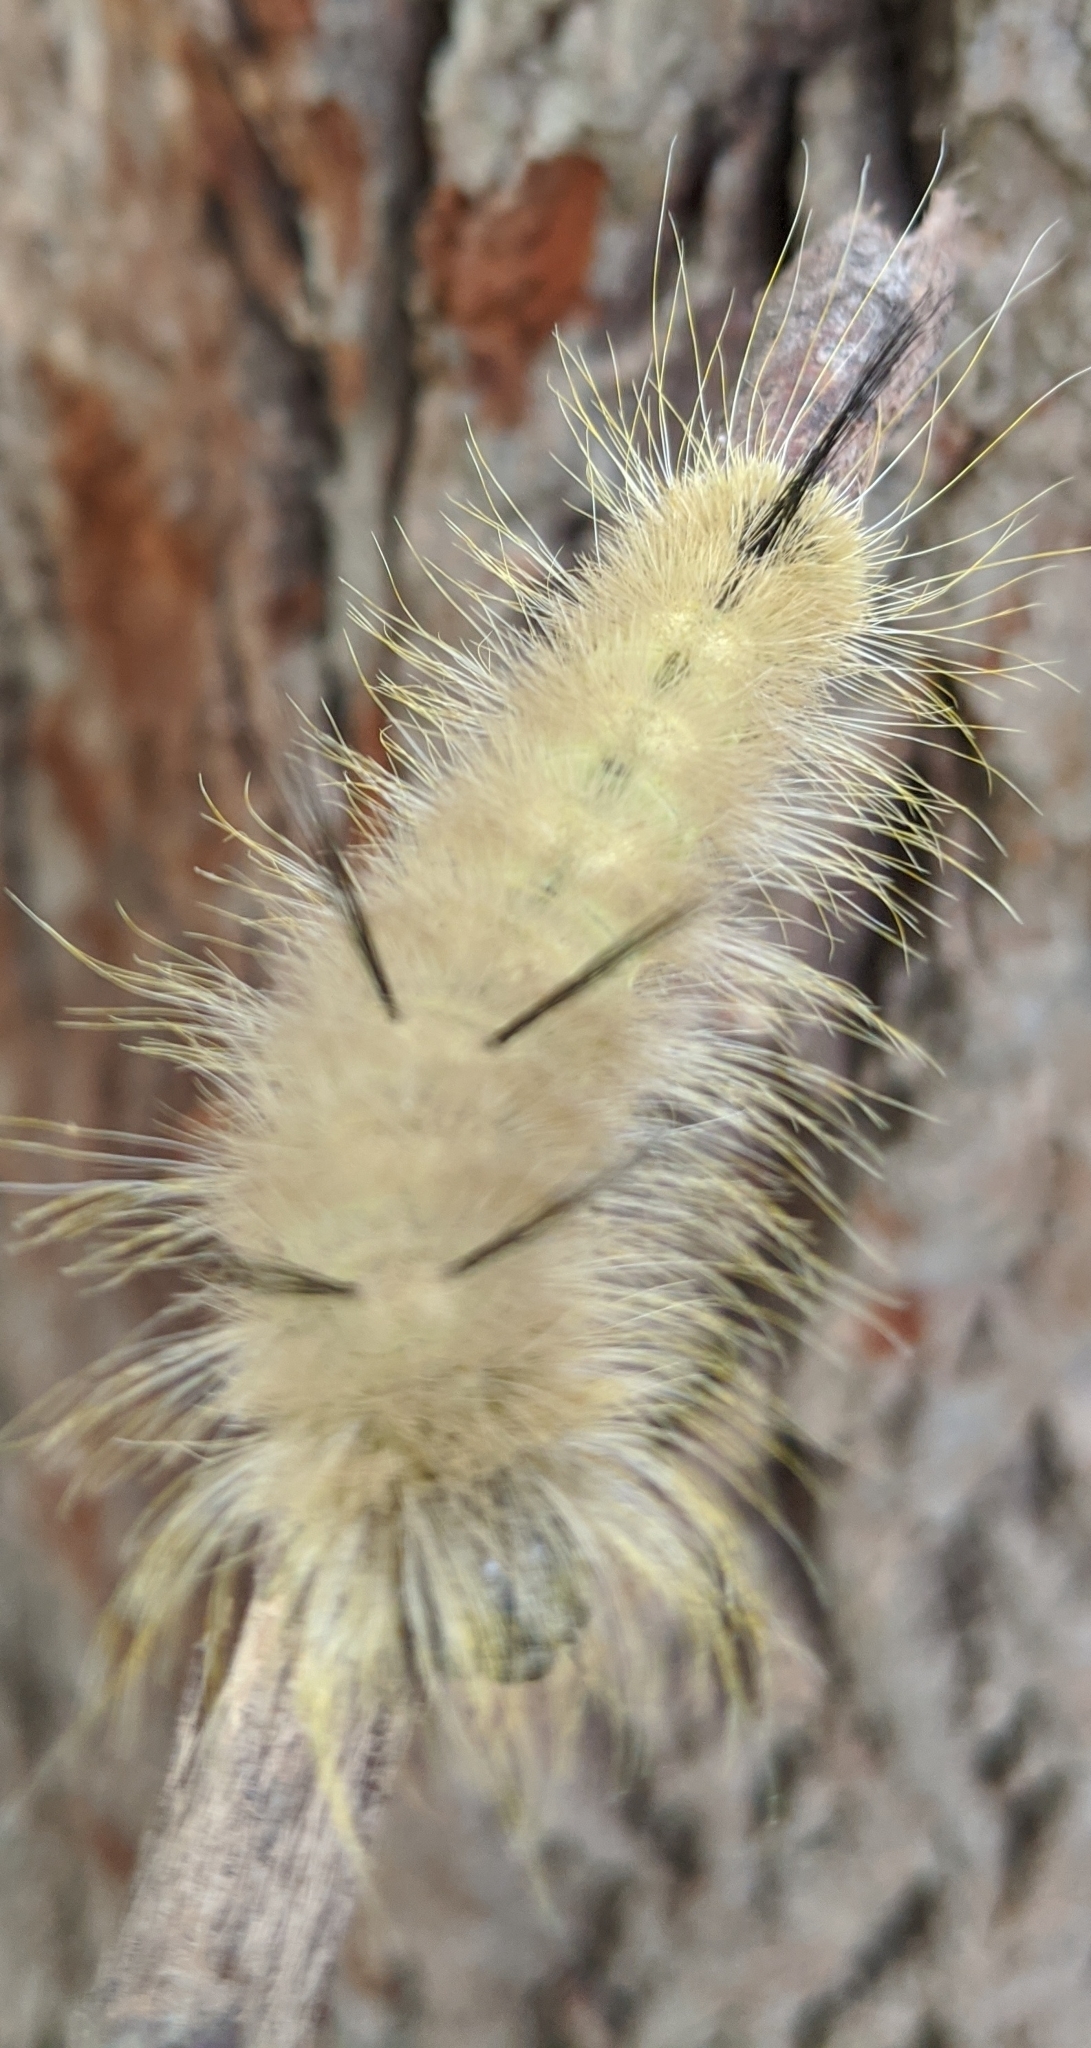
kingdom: Animalia
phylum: Arthropoda
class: Insecta
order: Lepidoptera
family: Noctuidae
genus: Acronicta
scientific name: Acronicta americana
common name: American dagger
